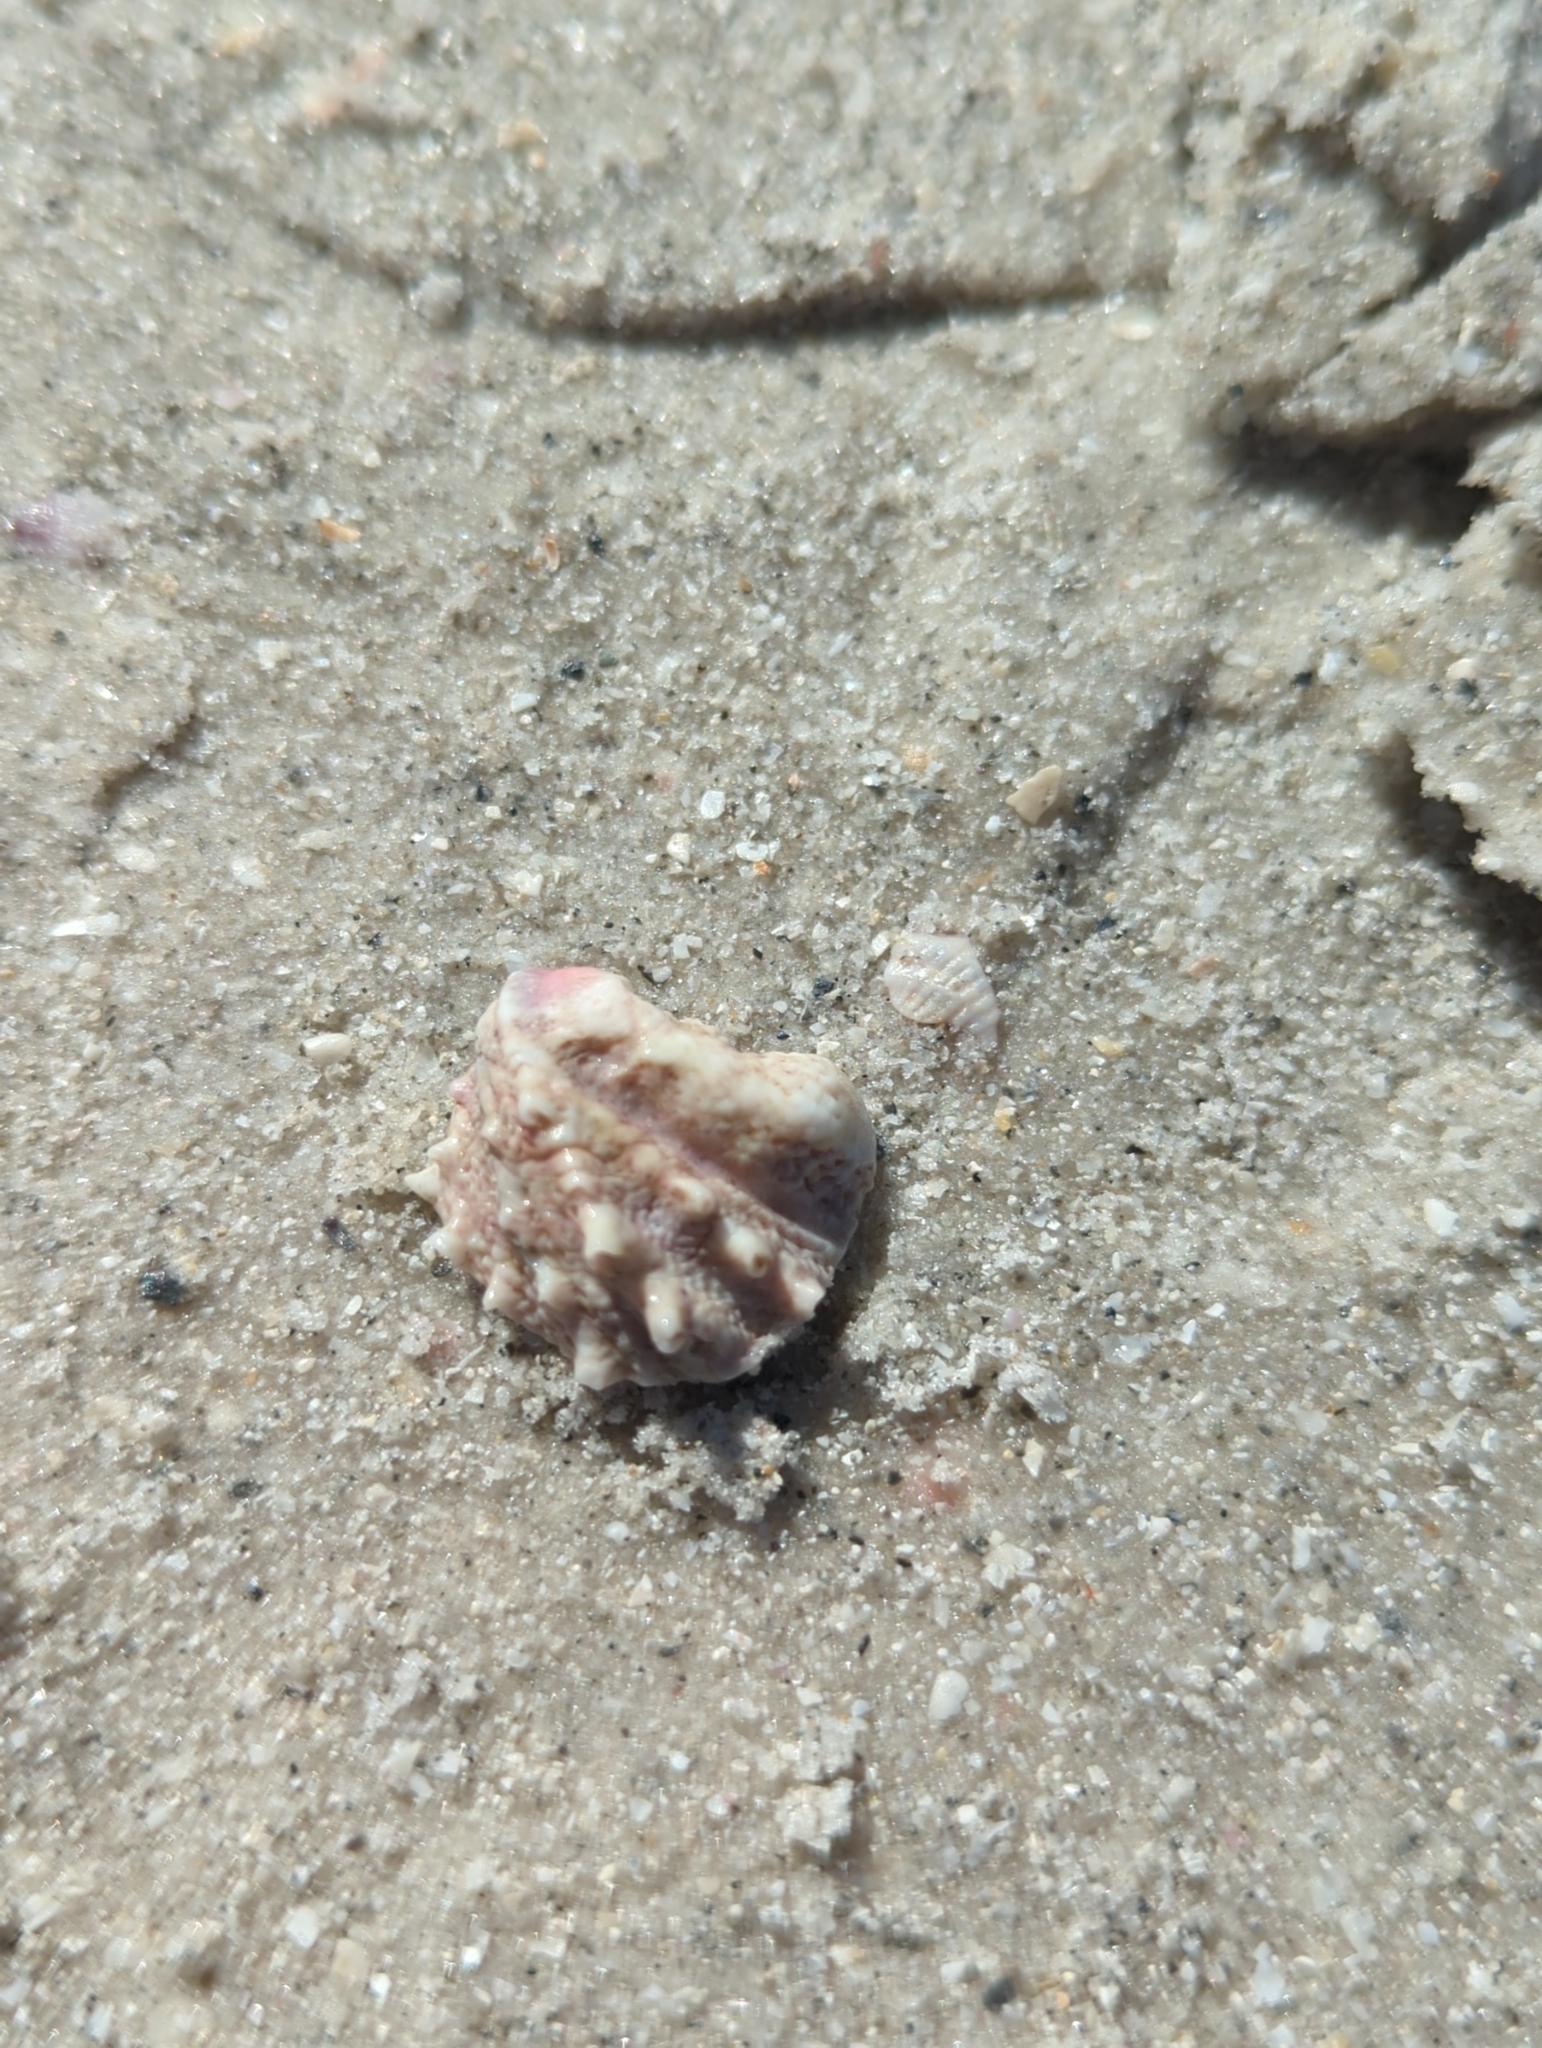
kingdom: Animalia
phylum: Mollusca
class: Bivalvia
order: Venerida
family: Chamidae
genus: Arcinella
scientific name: Arcinella cornuta
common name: Florida spiny jewel box
